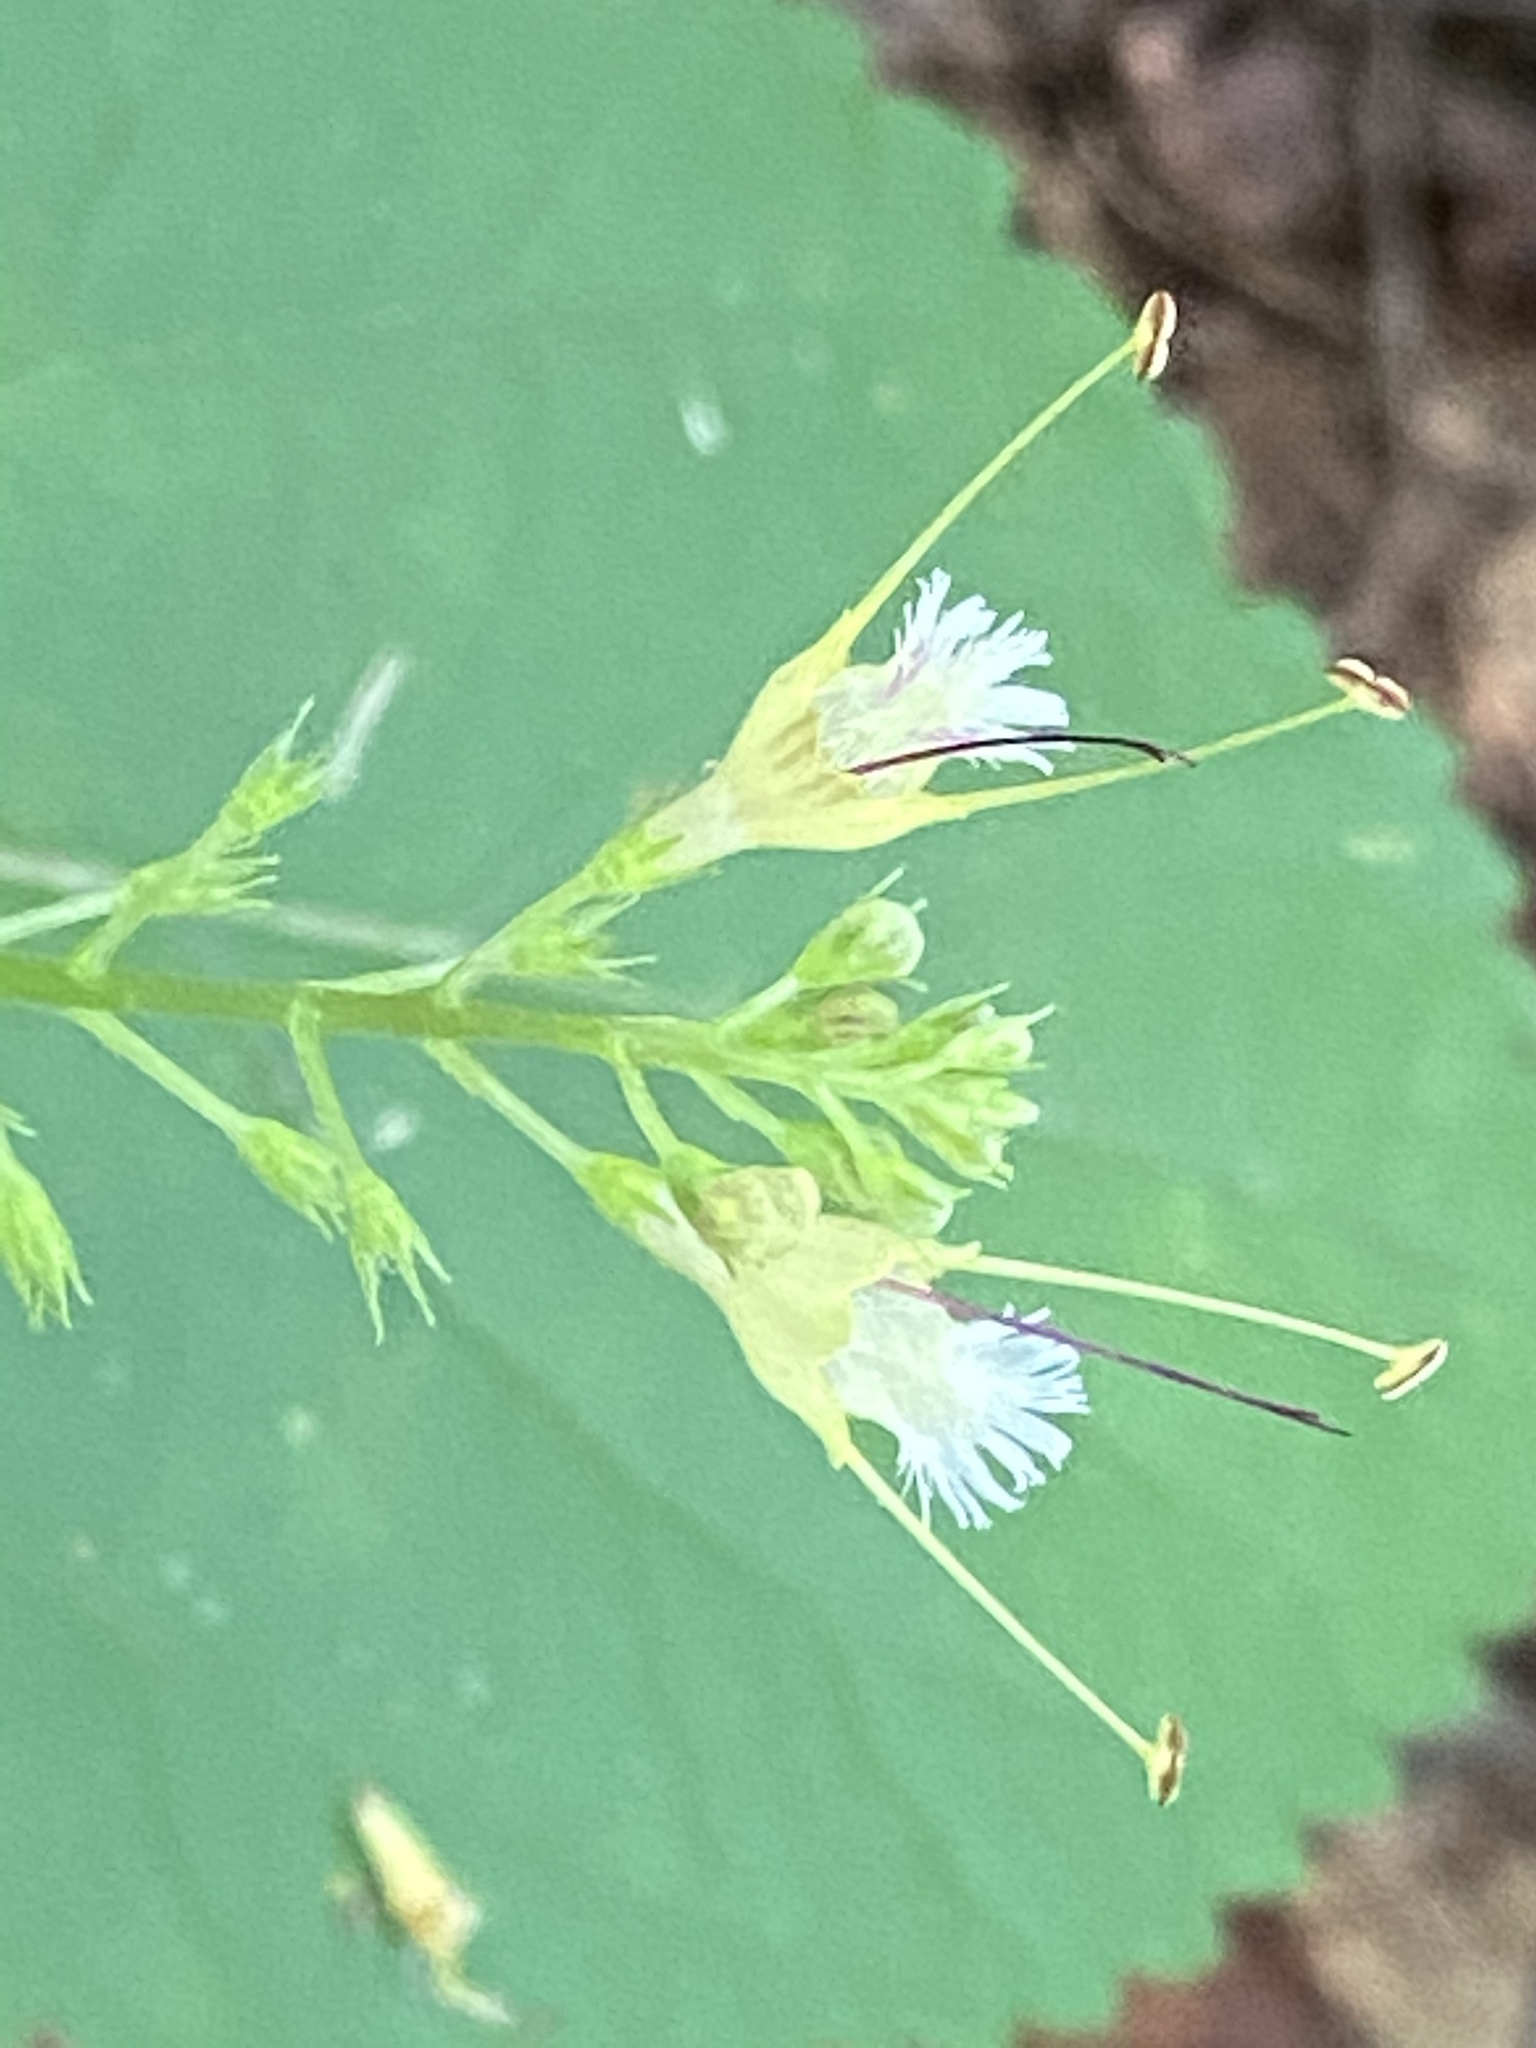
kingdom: Plantae
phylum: Tracheophyta
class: Magnoliopsida
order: Lamiales
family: Lamiaceae
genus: Collinsonia
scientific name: Collinsonia canadensis
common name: Northern horsebalm
